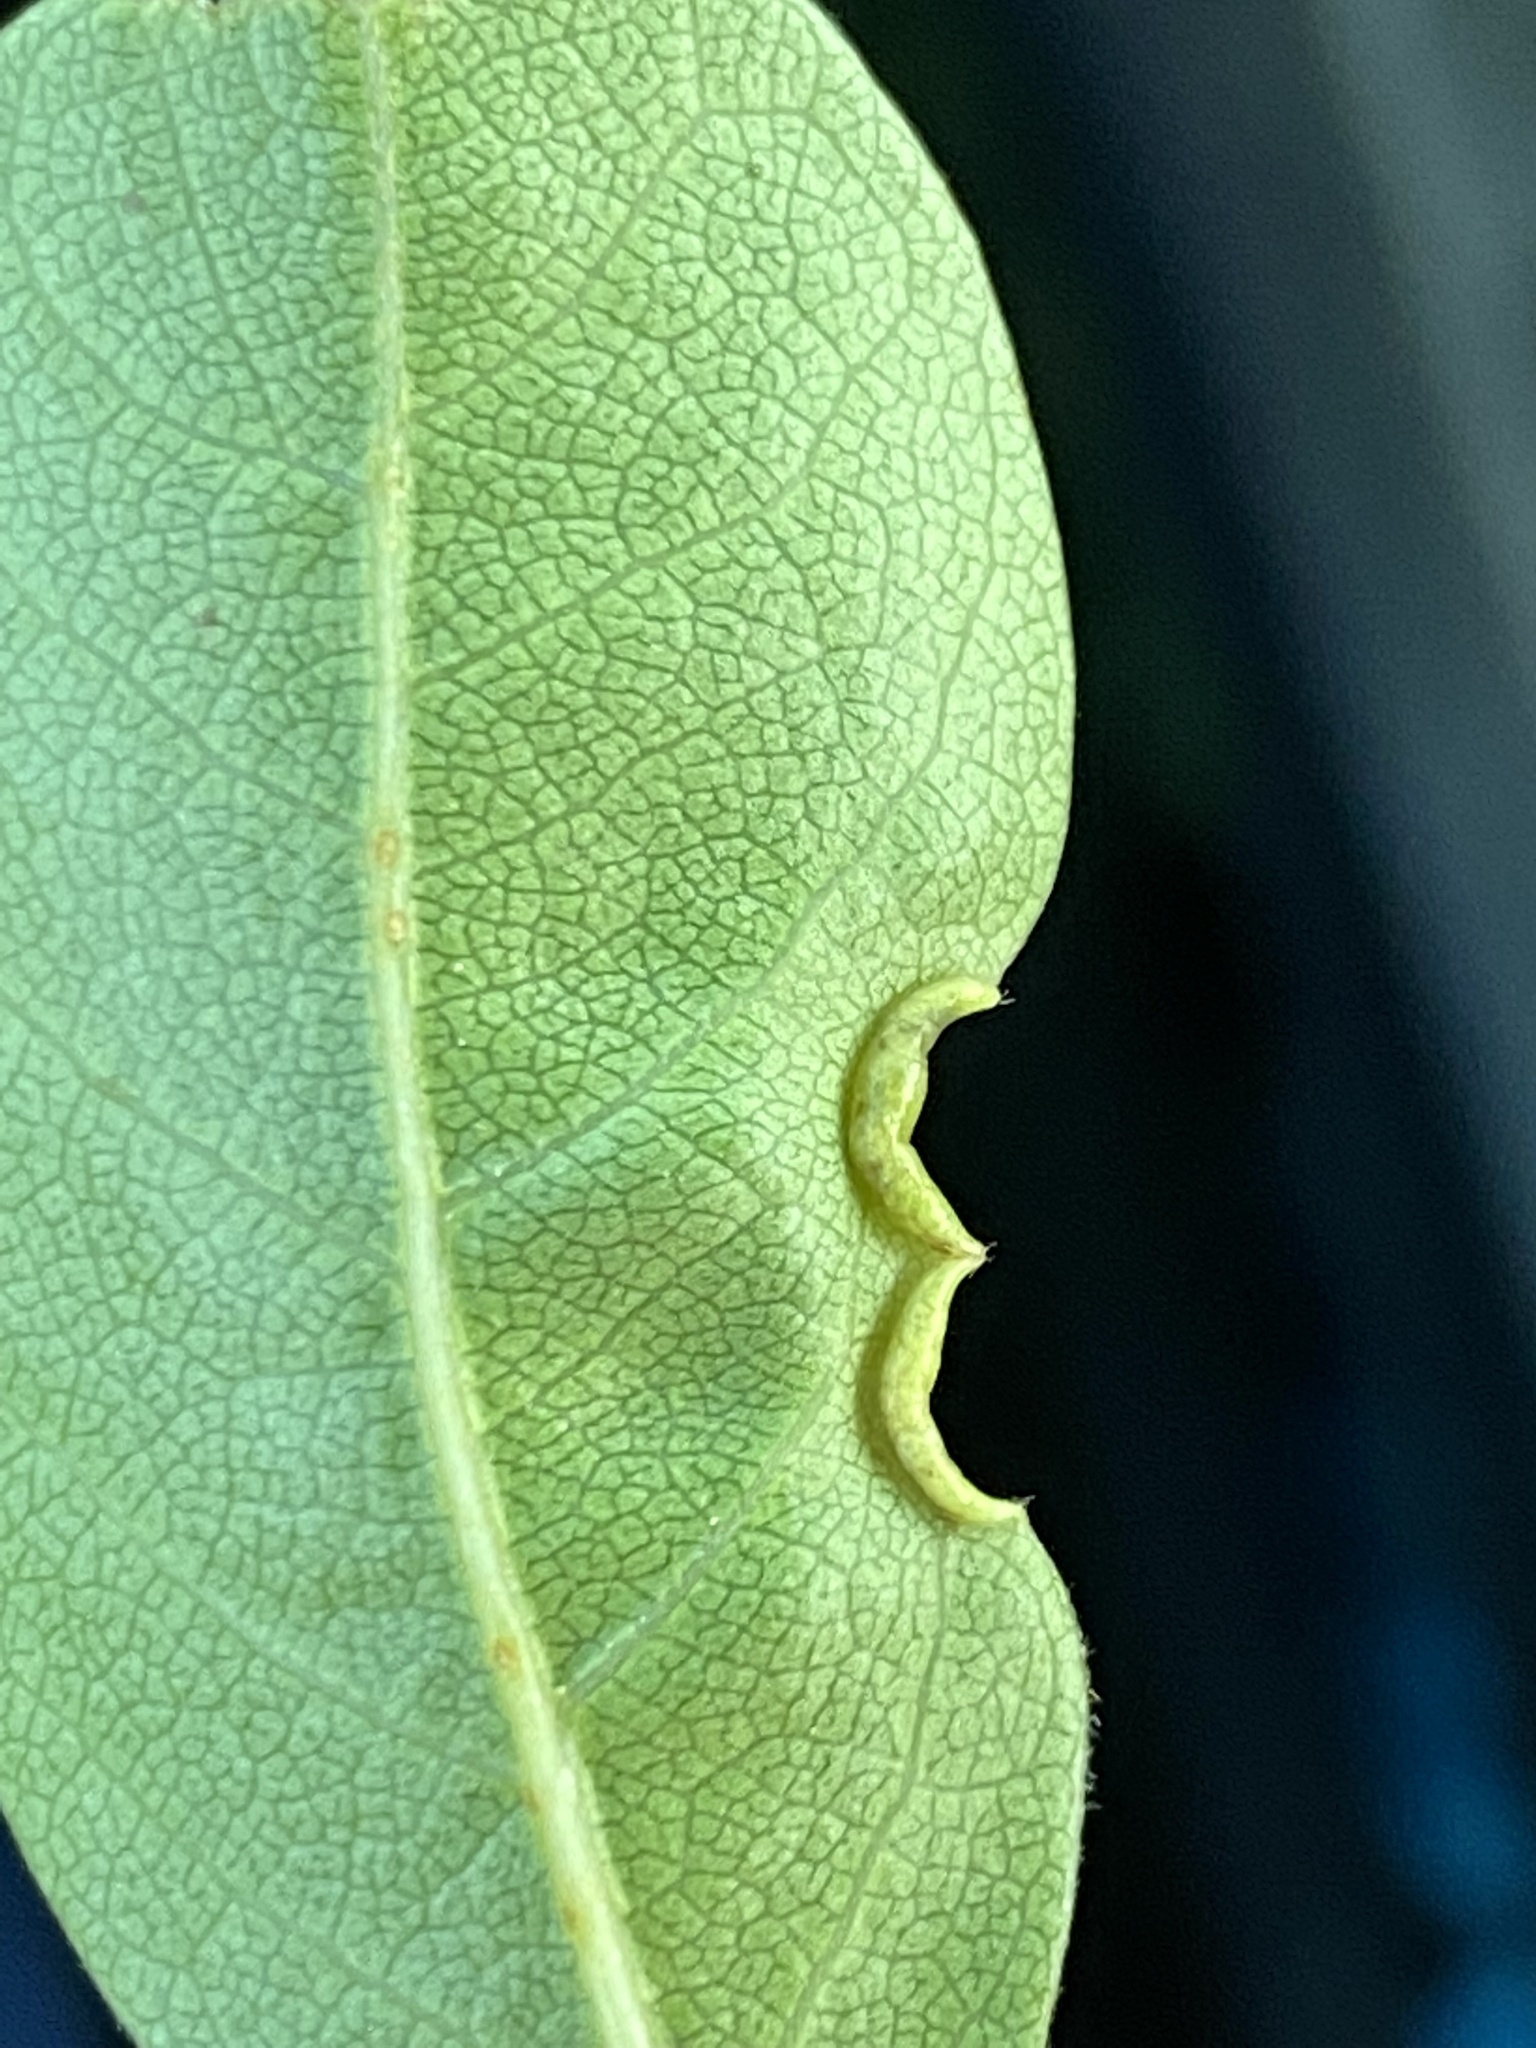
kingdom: Animalia
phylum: Arthropoda
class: Insecta
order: Hemiptera
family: Phylloxeridae
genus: Phylloxerina
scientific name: Phylloxerina nyssae
